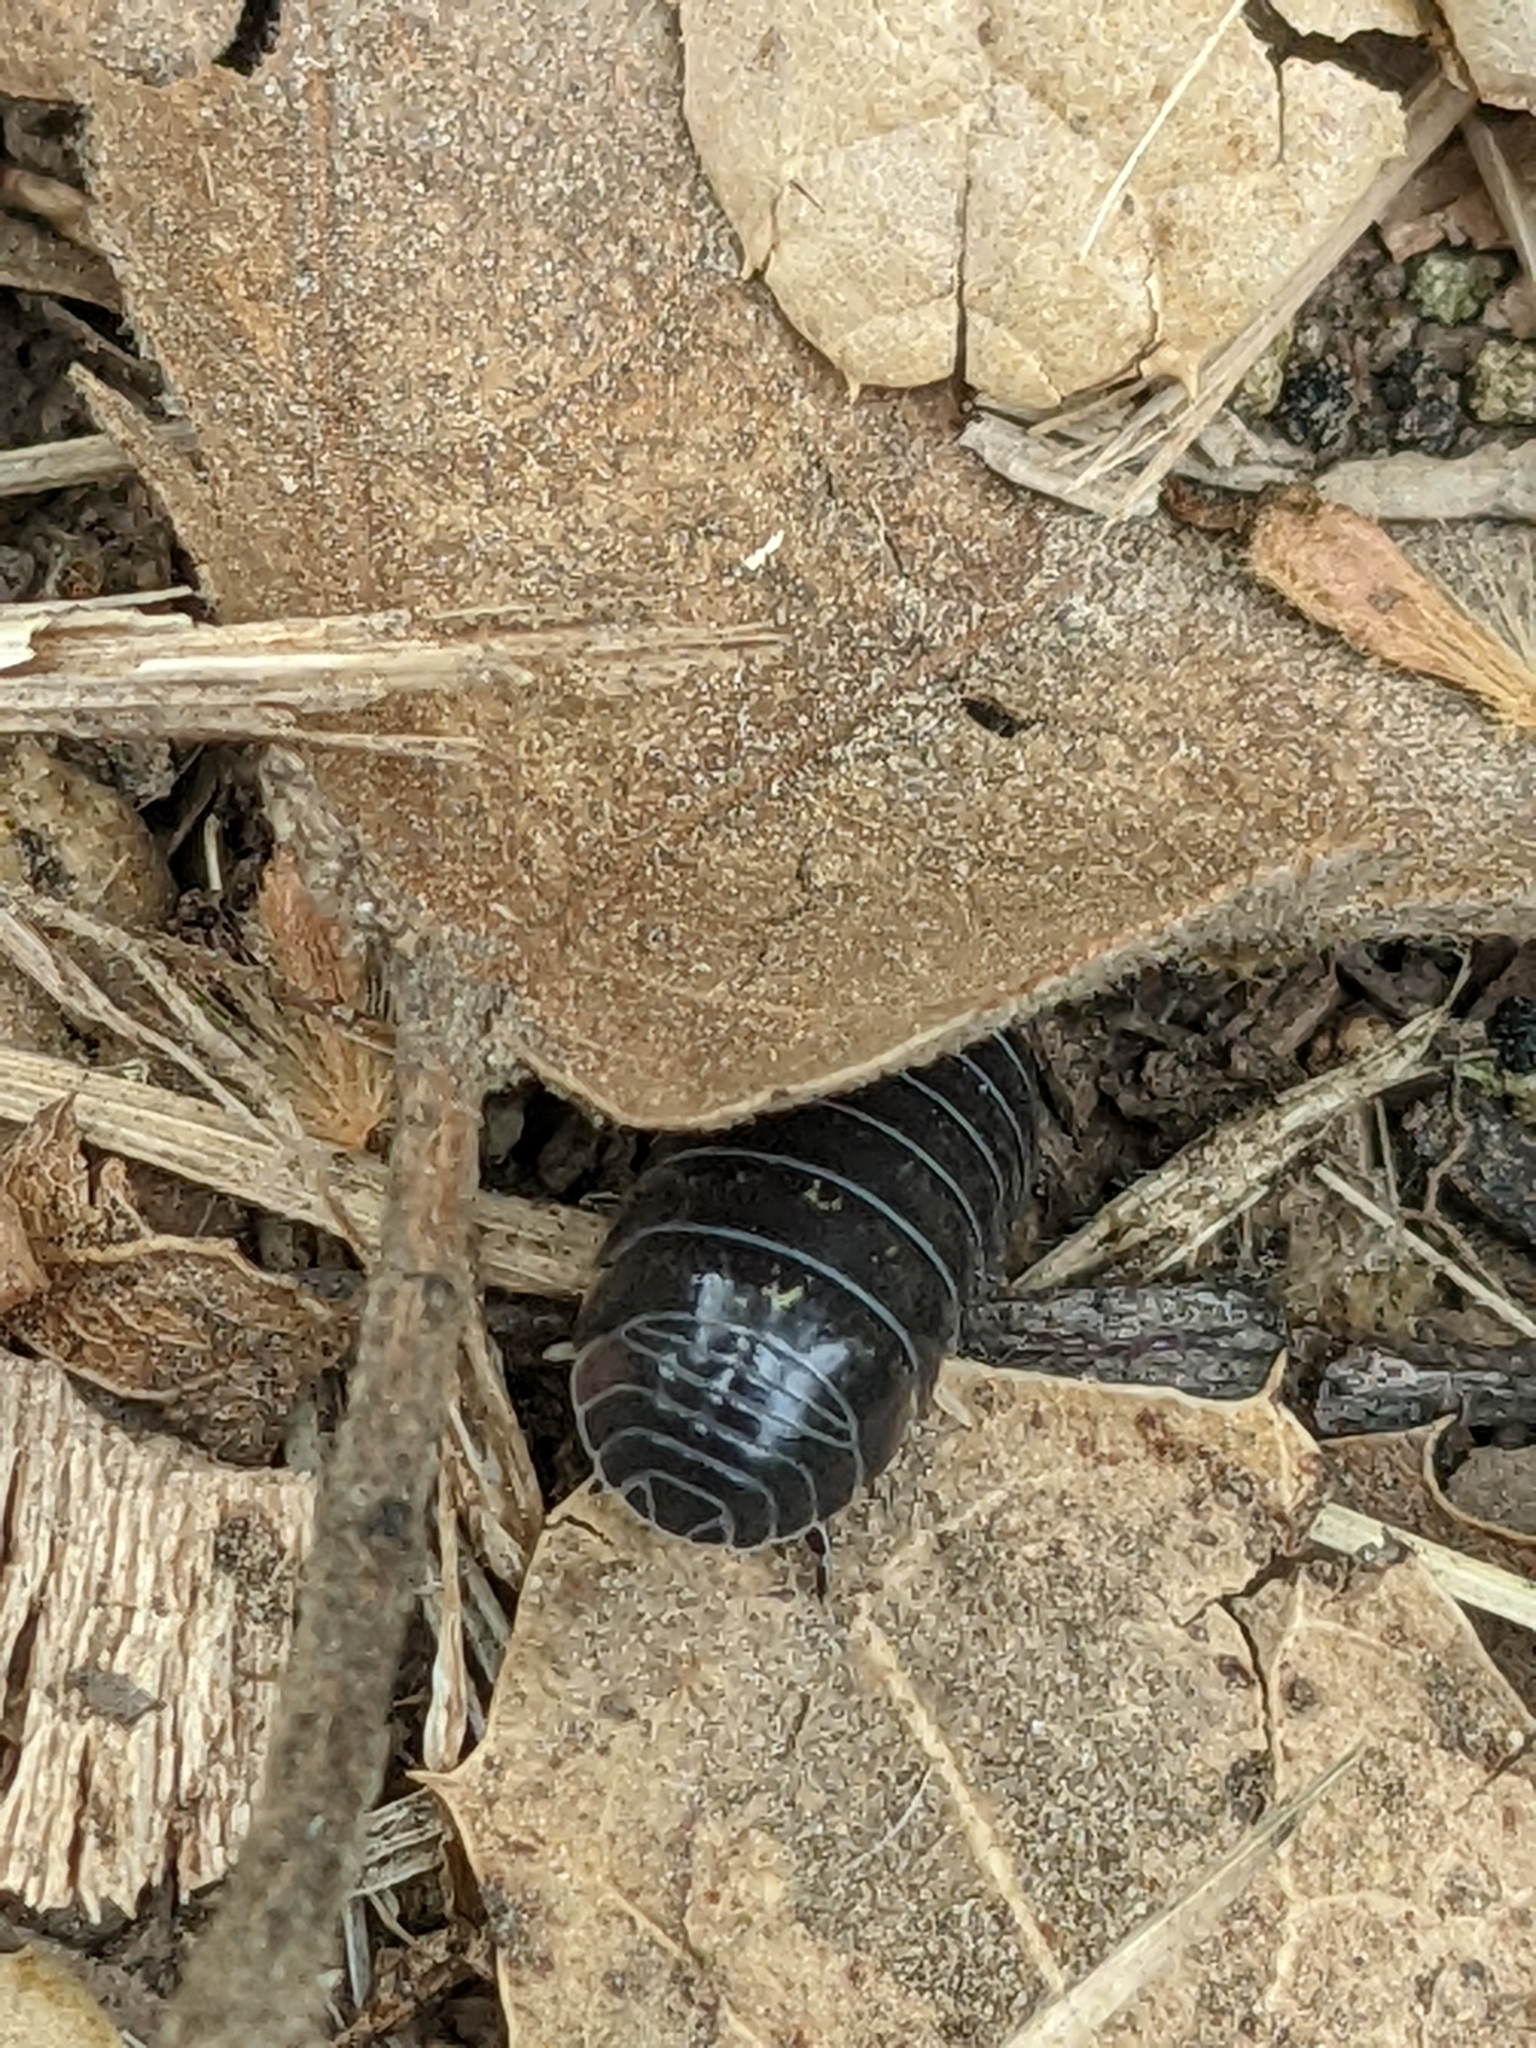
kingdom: Animalia
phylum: Arthropoda
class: Malacostraca
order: Isopoda
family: Armadillidiidae
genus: Armadillidium
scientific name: Armadillidium vulgare
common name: Common pill woodlouse
